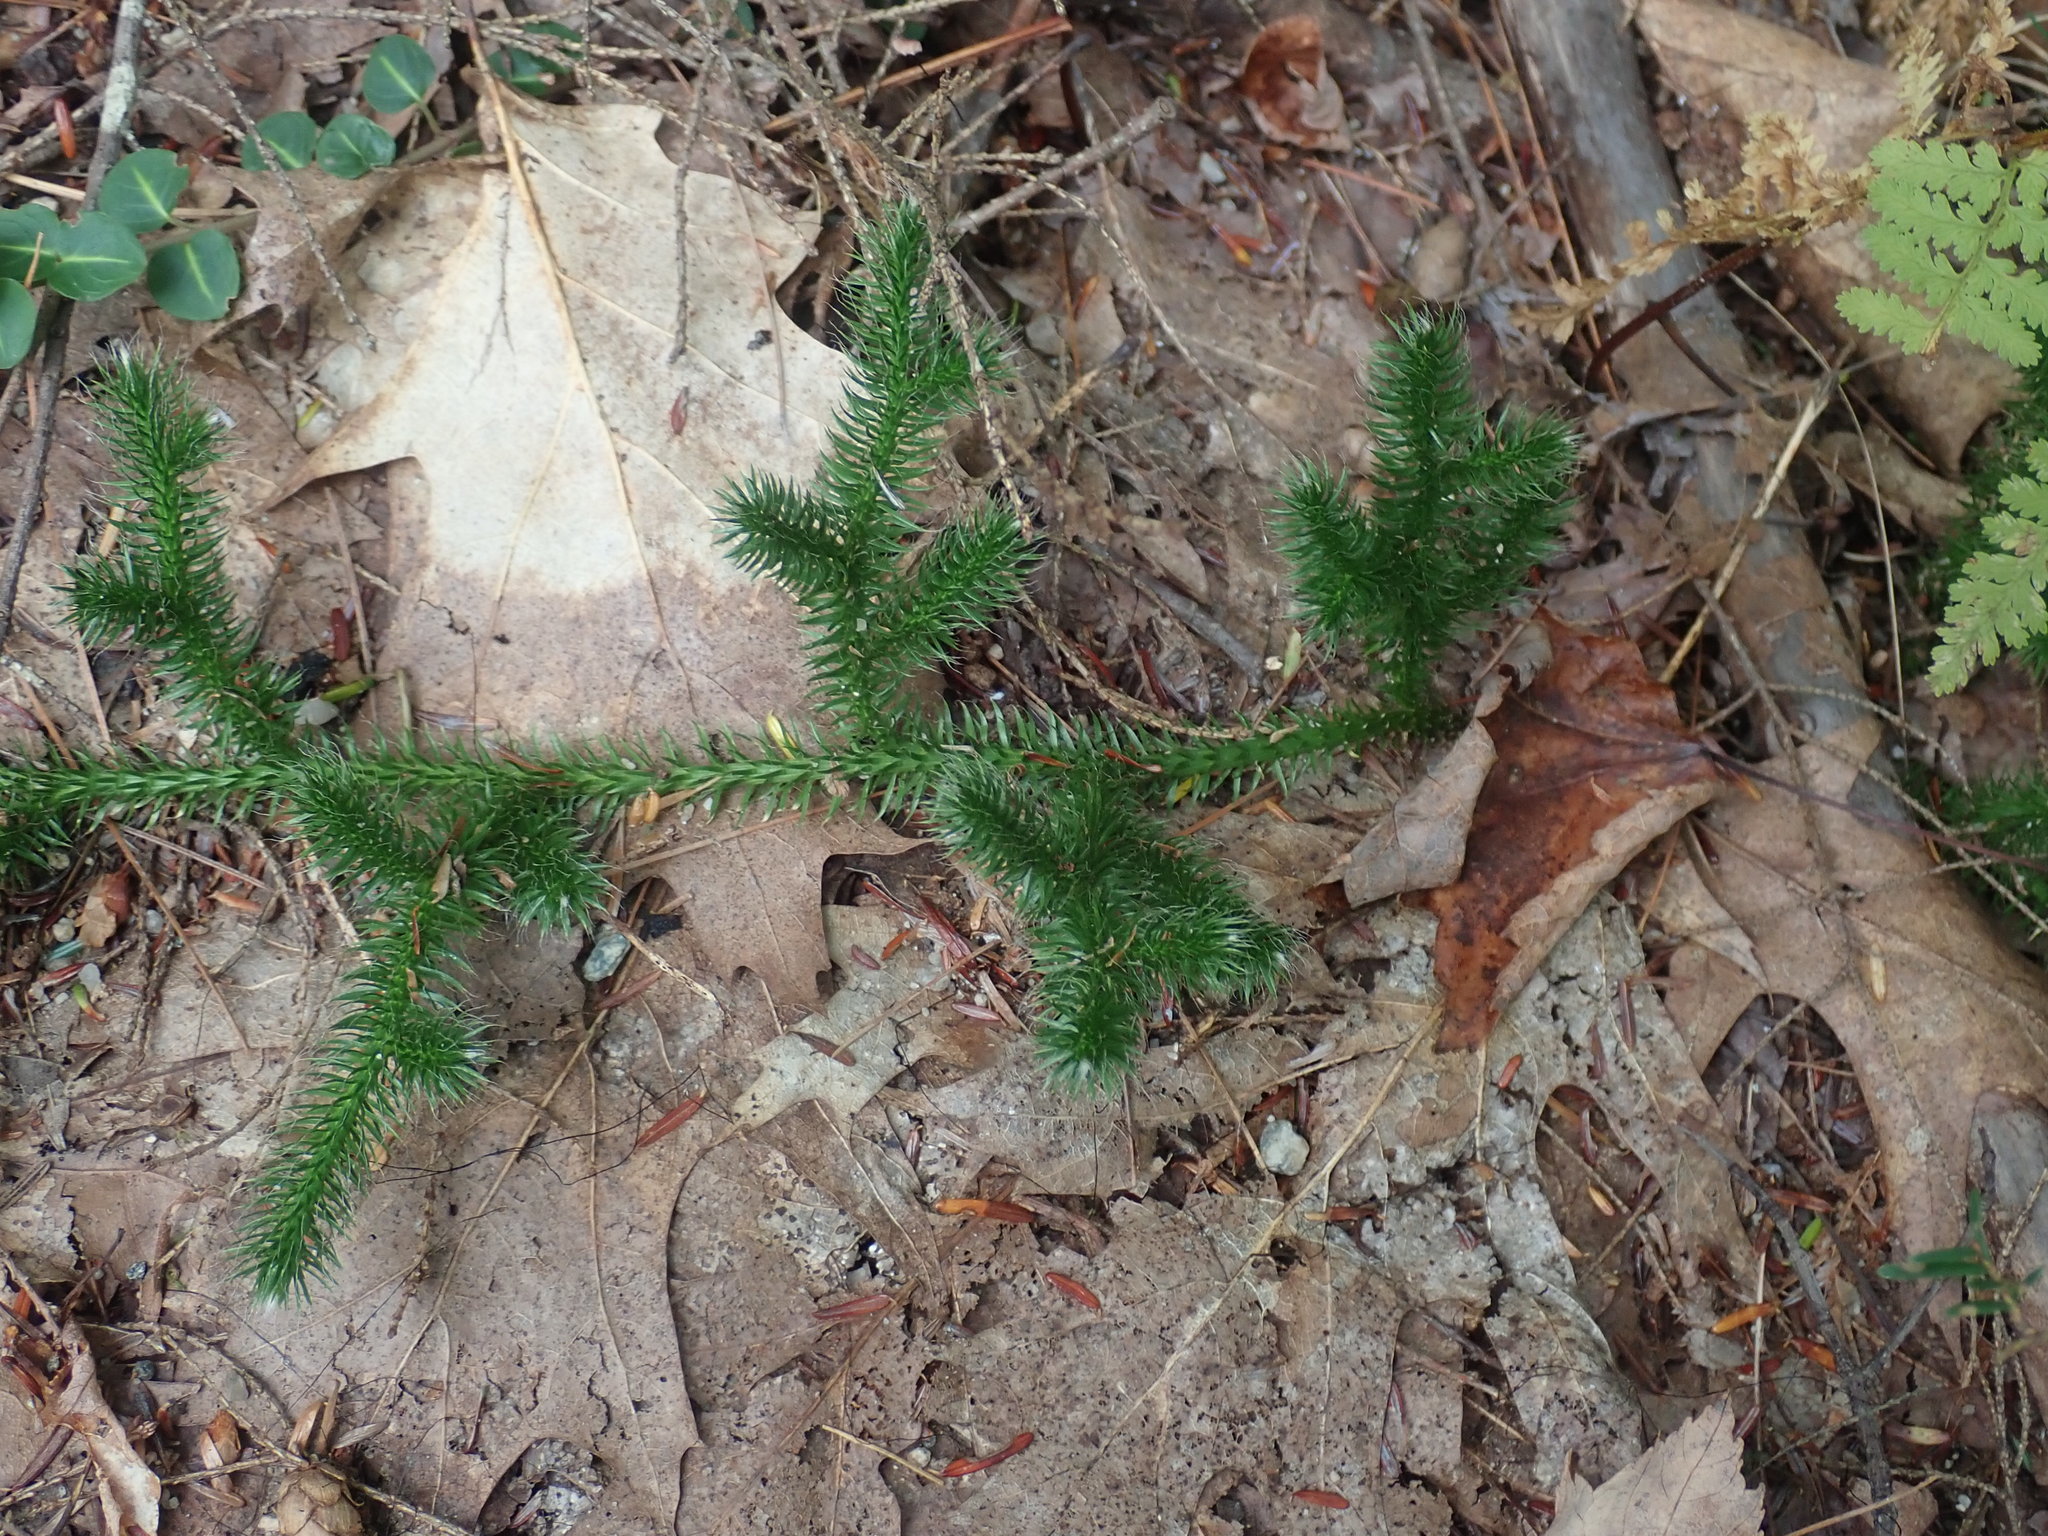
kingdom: Plantae
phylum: Tracheophyta
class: Lycopodiopsida
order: Lycopodiales
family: Lycopodiaceae
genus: Lycopodium
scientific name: Lycopodium clavatum
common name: Stag's-horn clubmoss
